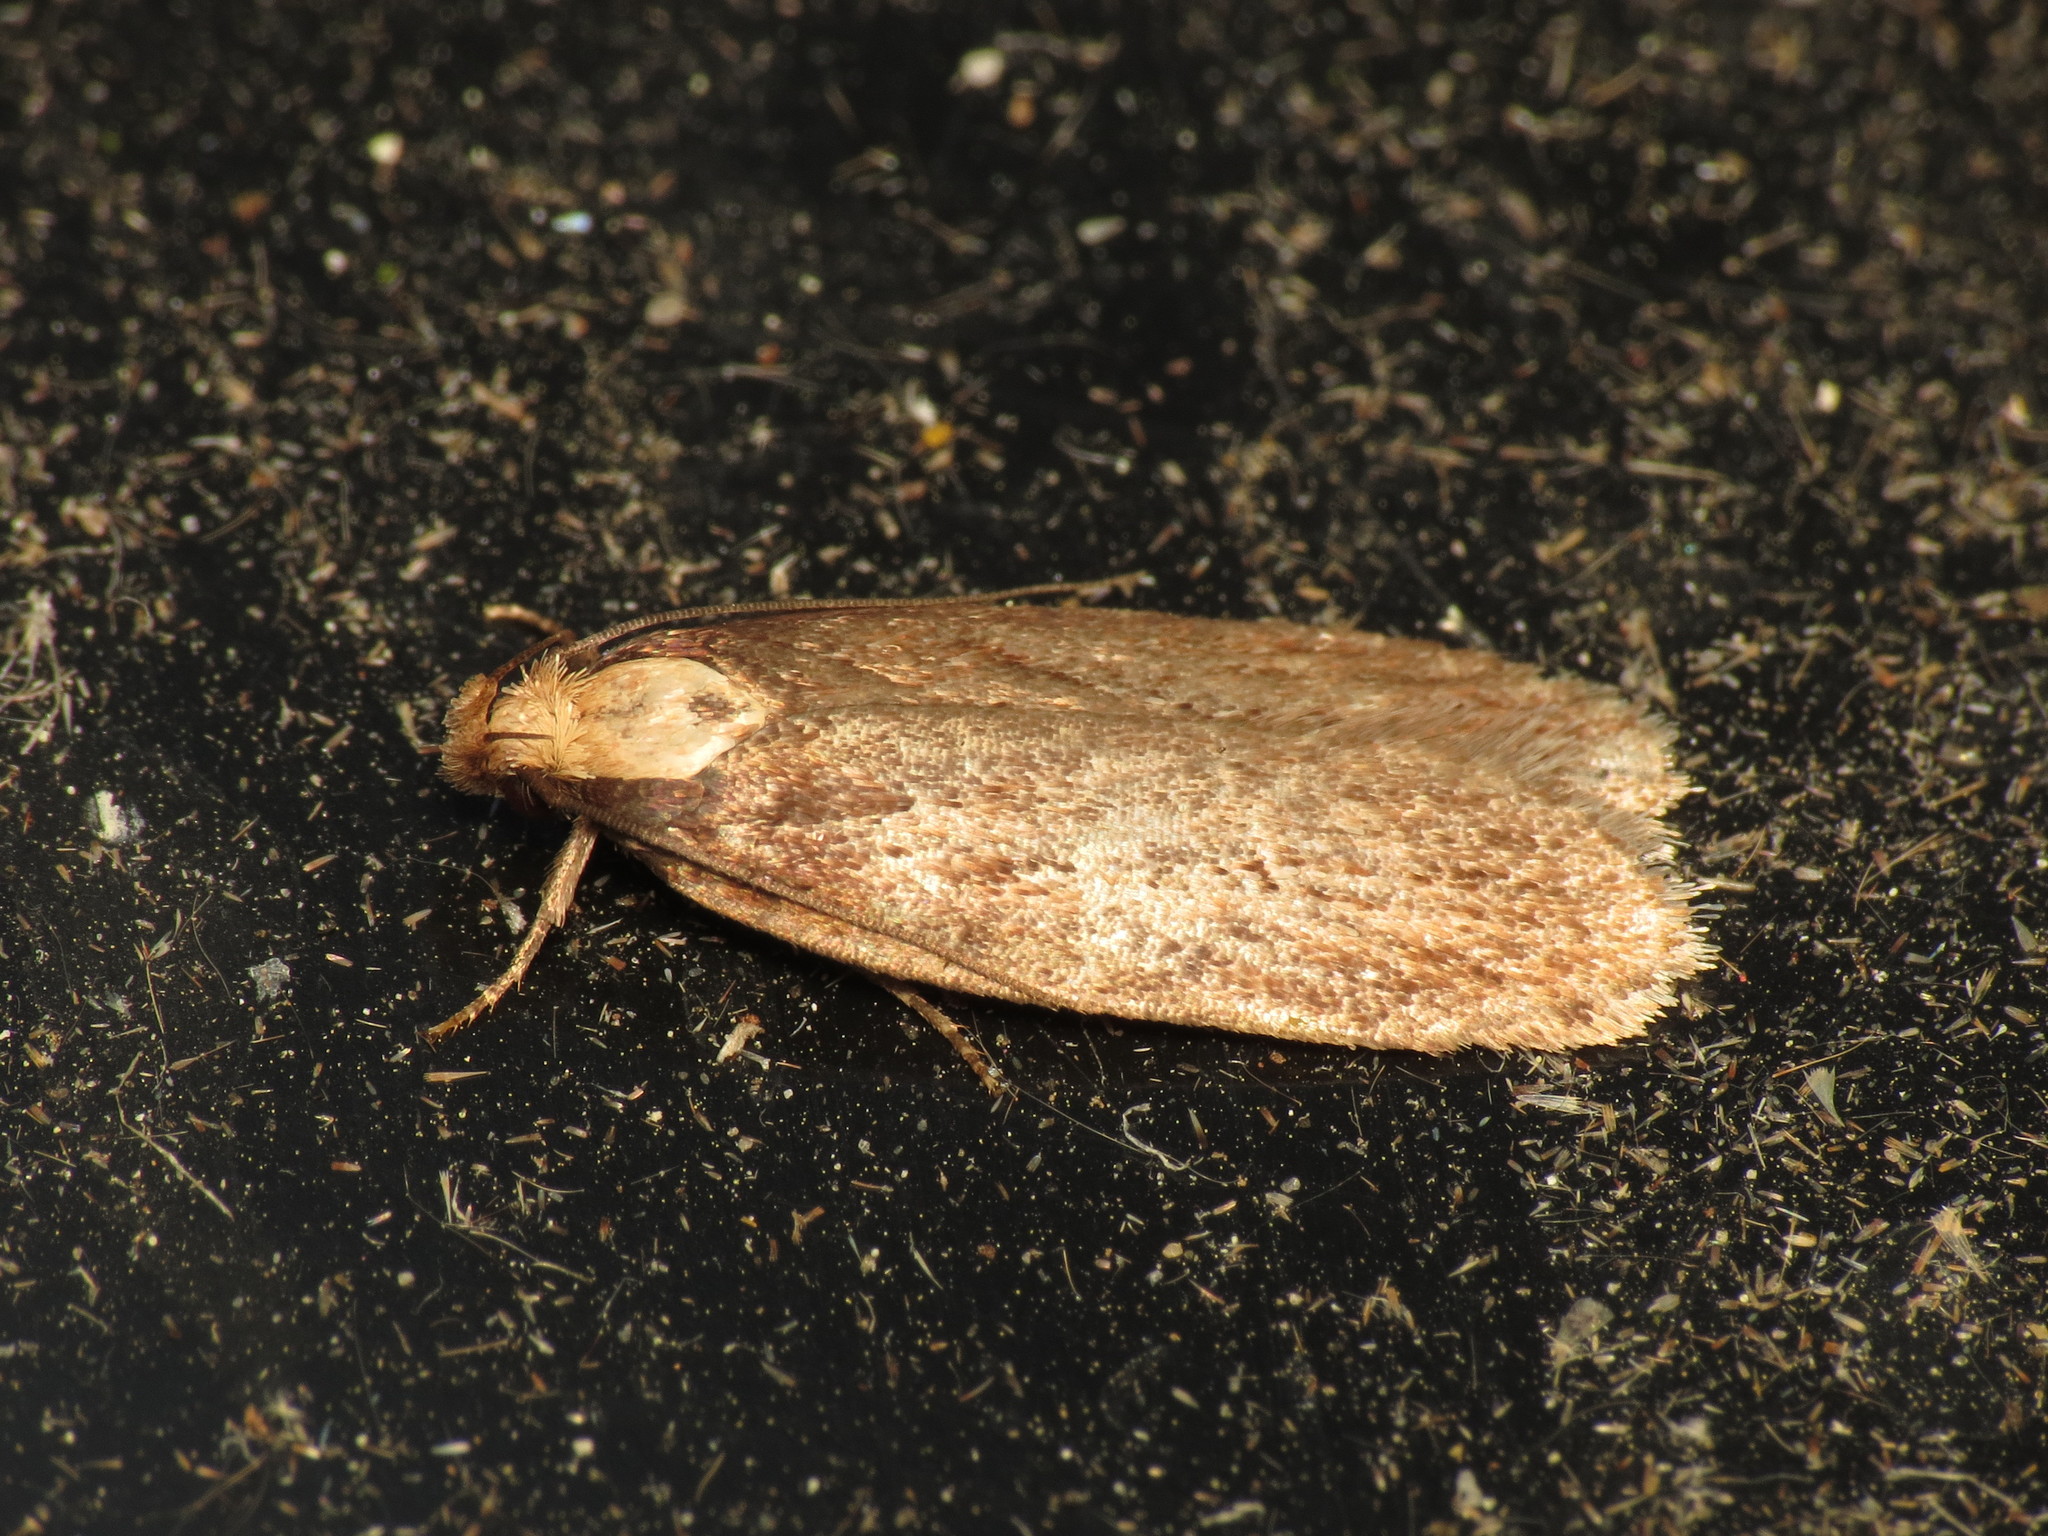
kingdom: Animalia
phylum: Arthropoda
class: Insecta
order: Lepidoptera
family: Depressariidae
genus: Depressaria
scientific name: Depressaria emeritella
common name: Tansy flat-body
